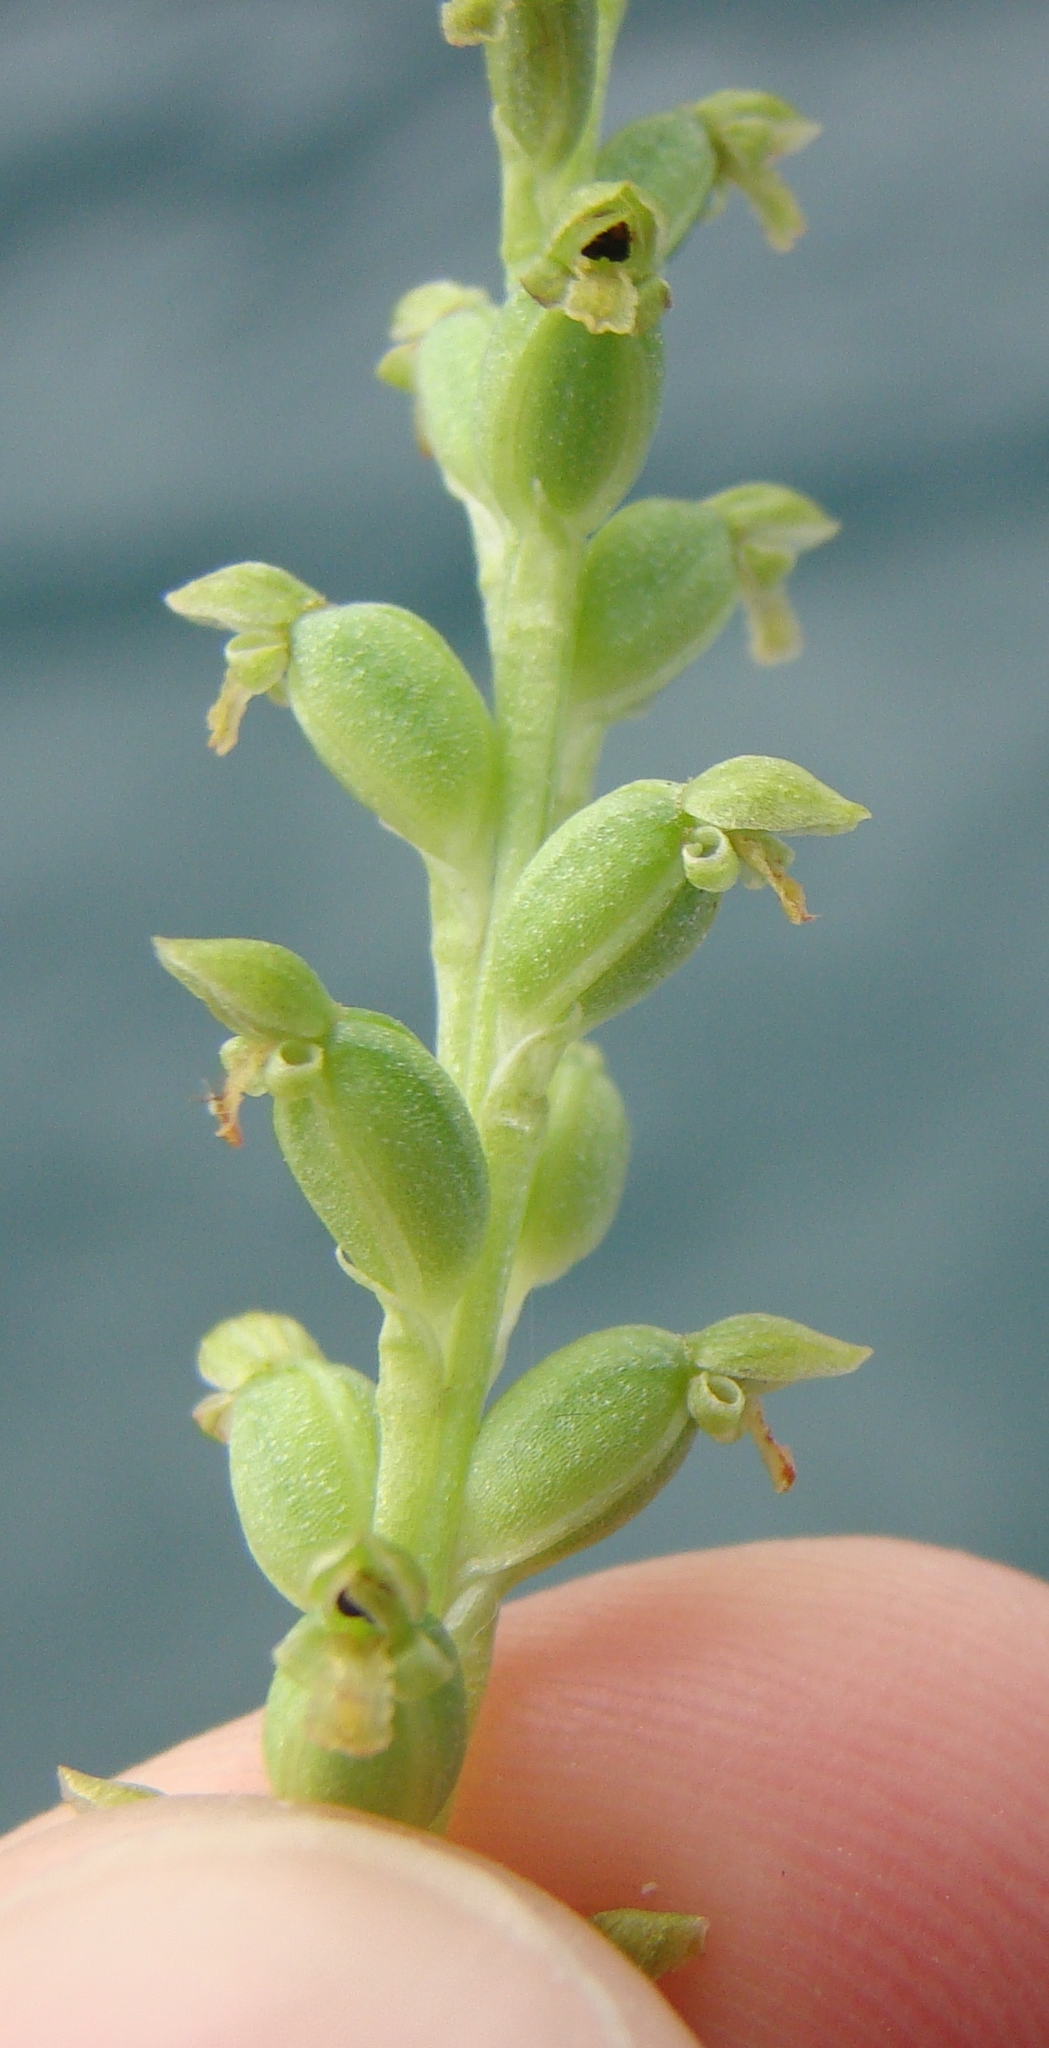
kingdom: Plantae
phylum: Tracheophyta
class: Liliopsida
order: Asparagales
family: Orchidaceae
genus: Microtis
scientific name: Microtis unifolia
